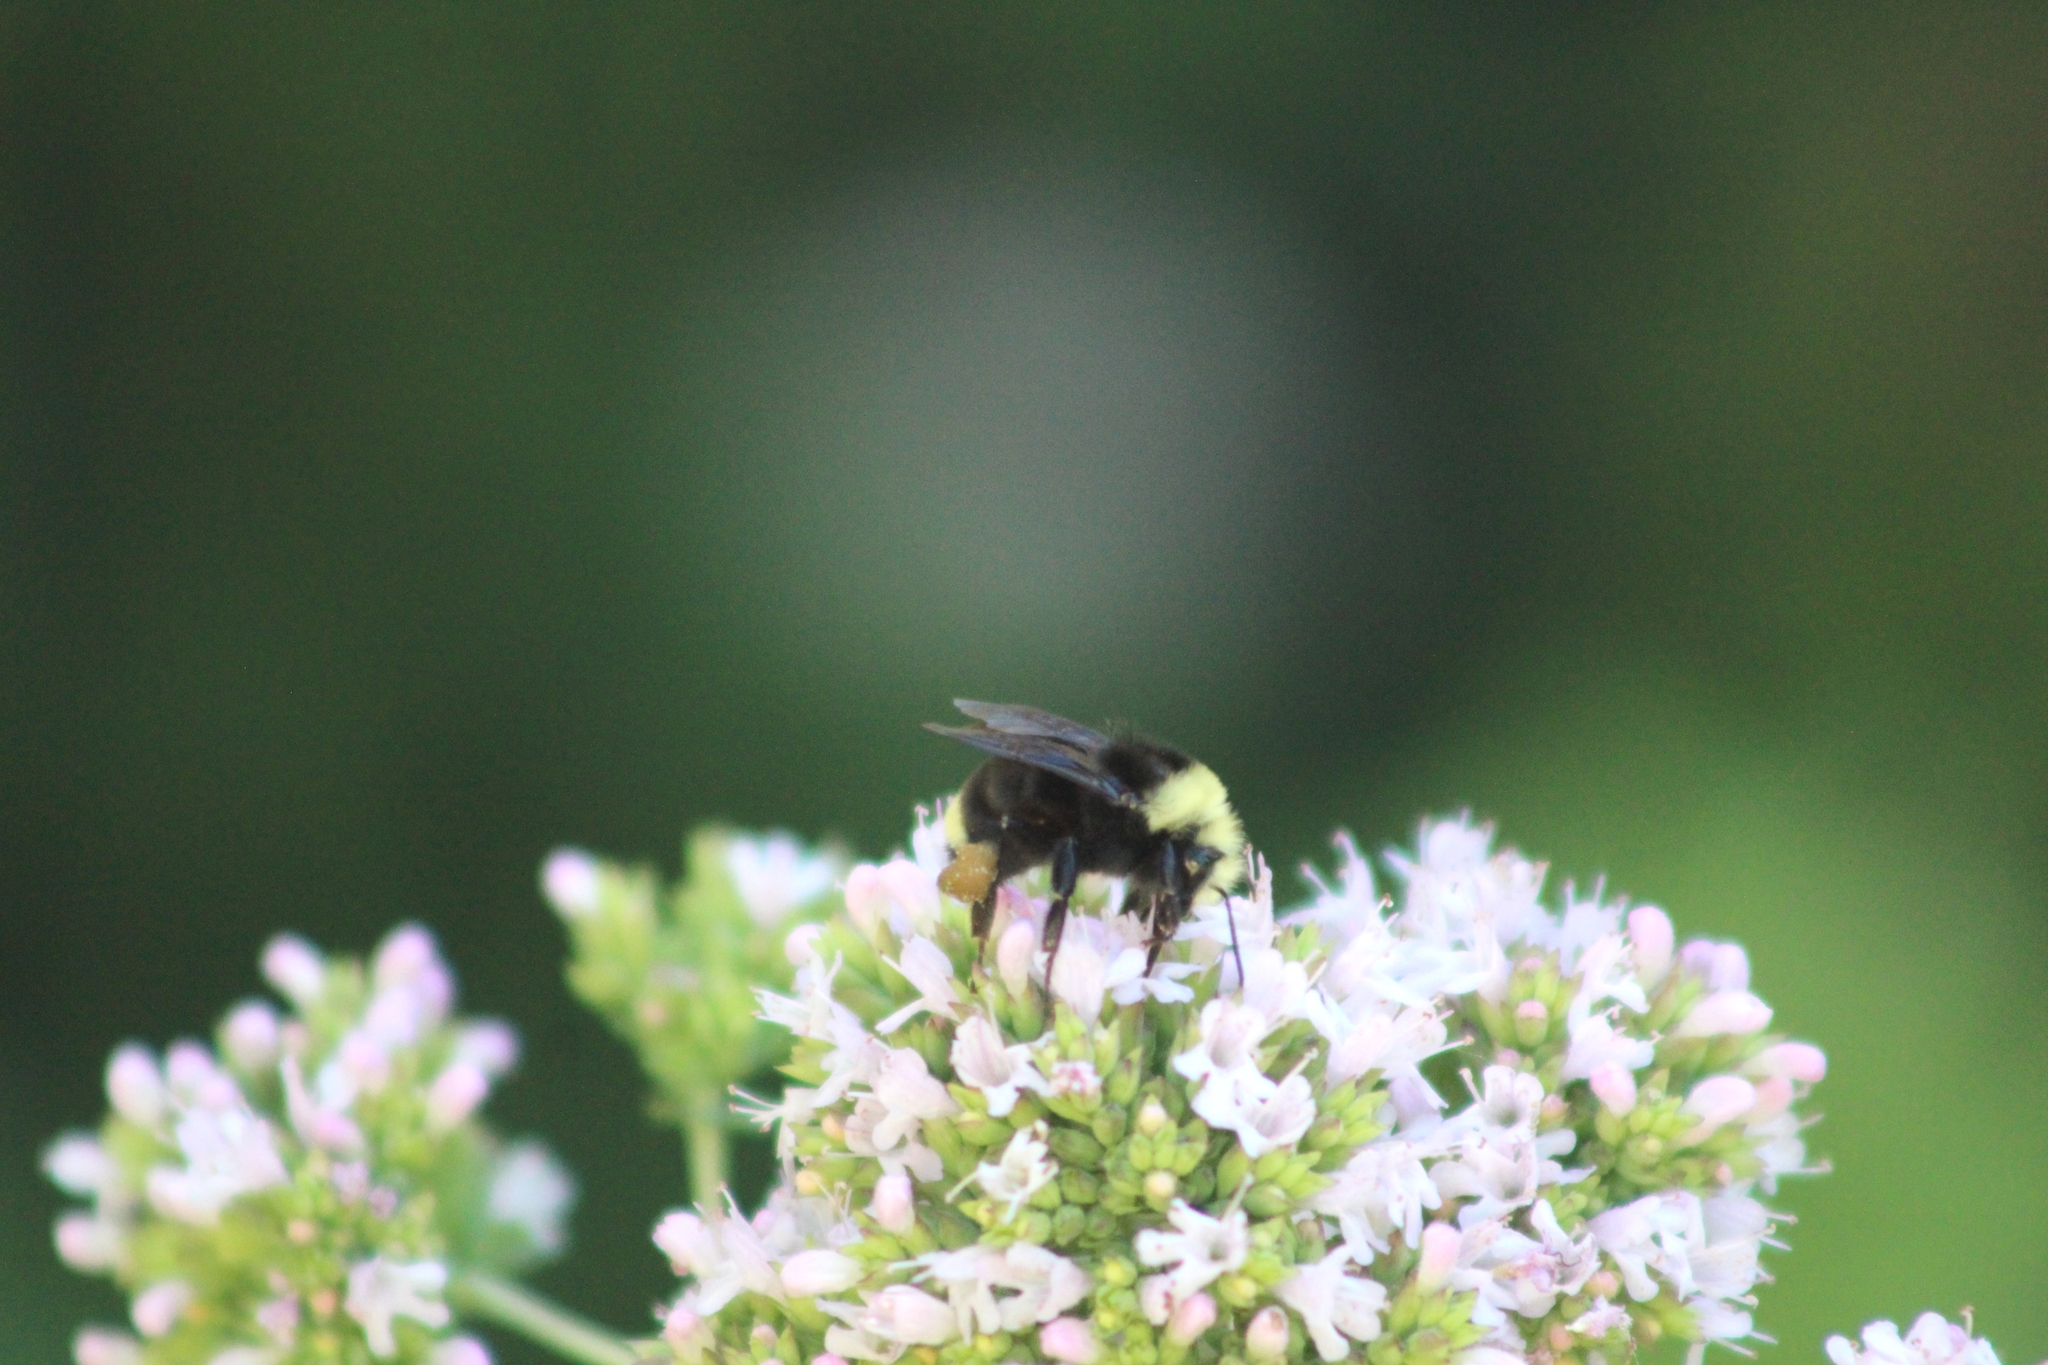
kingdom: Animalia
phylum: Arthropoda
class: Insecta
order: Hymenoptera
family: Apidae
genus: Bombus
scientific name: Bombus vosnesenskii
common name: Vosnesensky bumble bee
